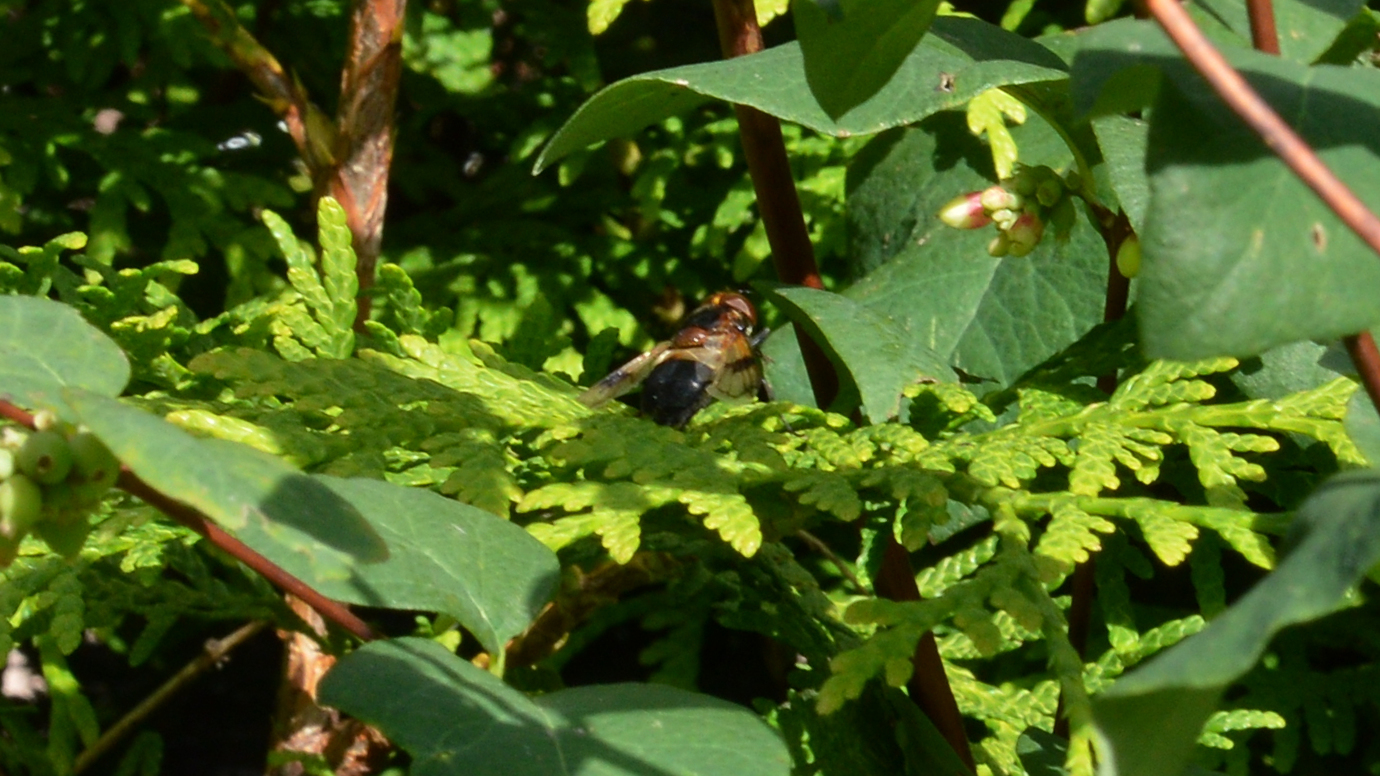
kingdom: Animalia
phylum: Arthropoda
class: Insecta
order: Diptera
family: Syrphidae
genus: Volucella
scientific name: Volucella pellucens
